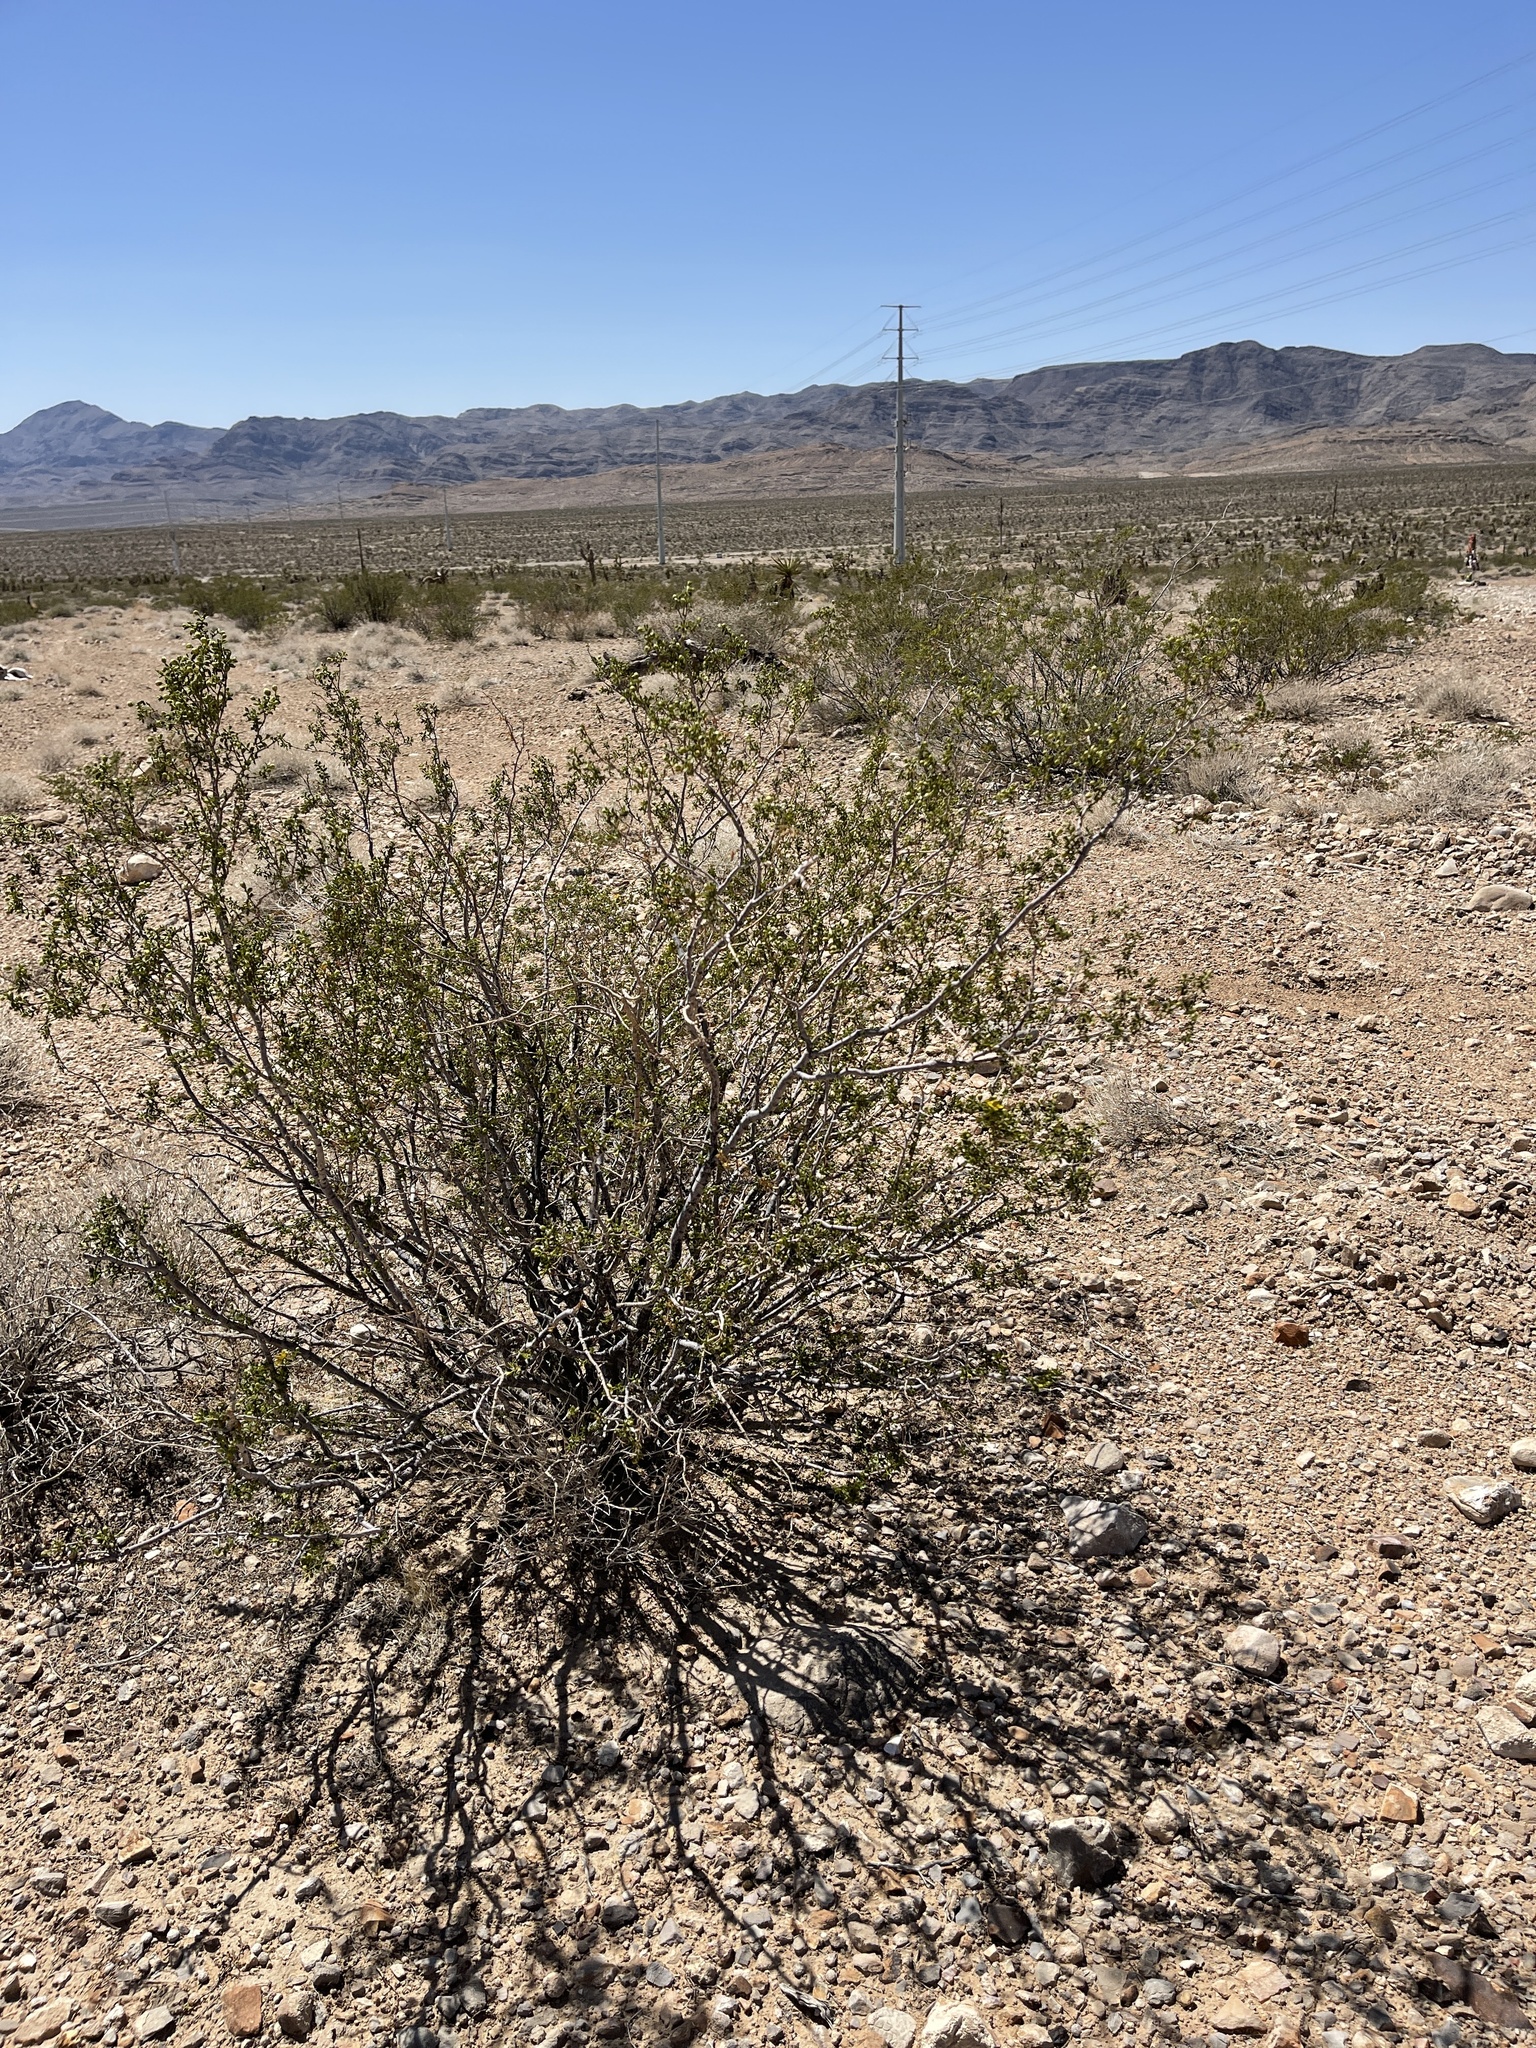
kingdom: Plantae
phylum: Tracheophyta
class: Magnoliopsida
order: Zygophyllales
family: Zygophyllaceae
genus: Larrea
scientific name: Larrea tridentata
